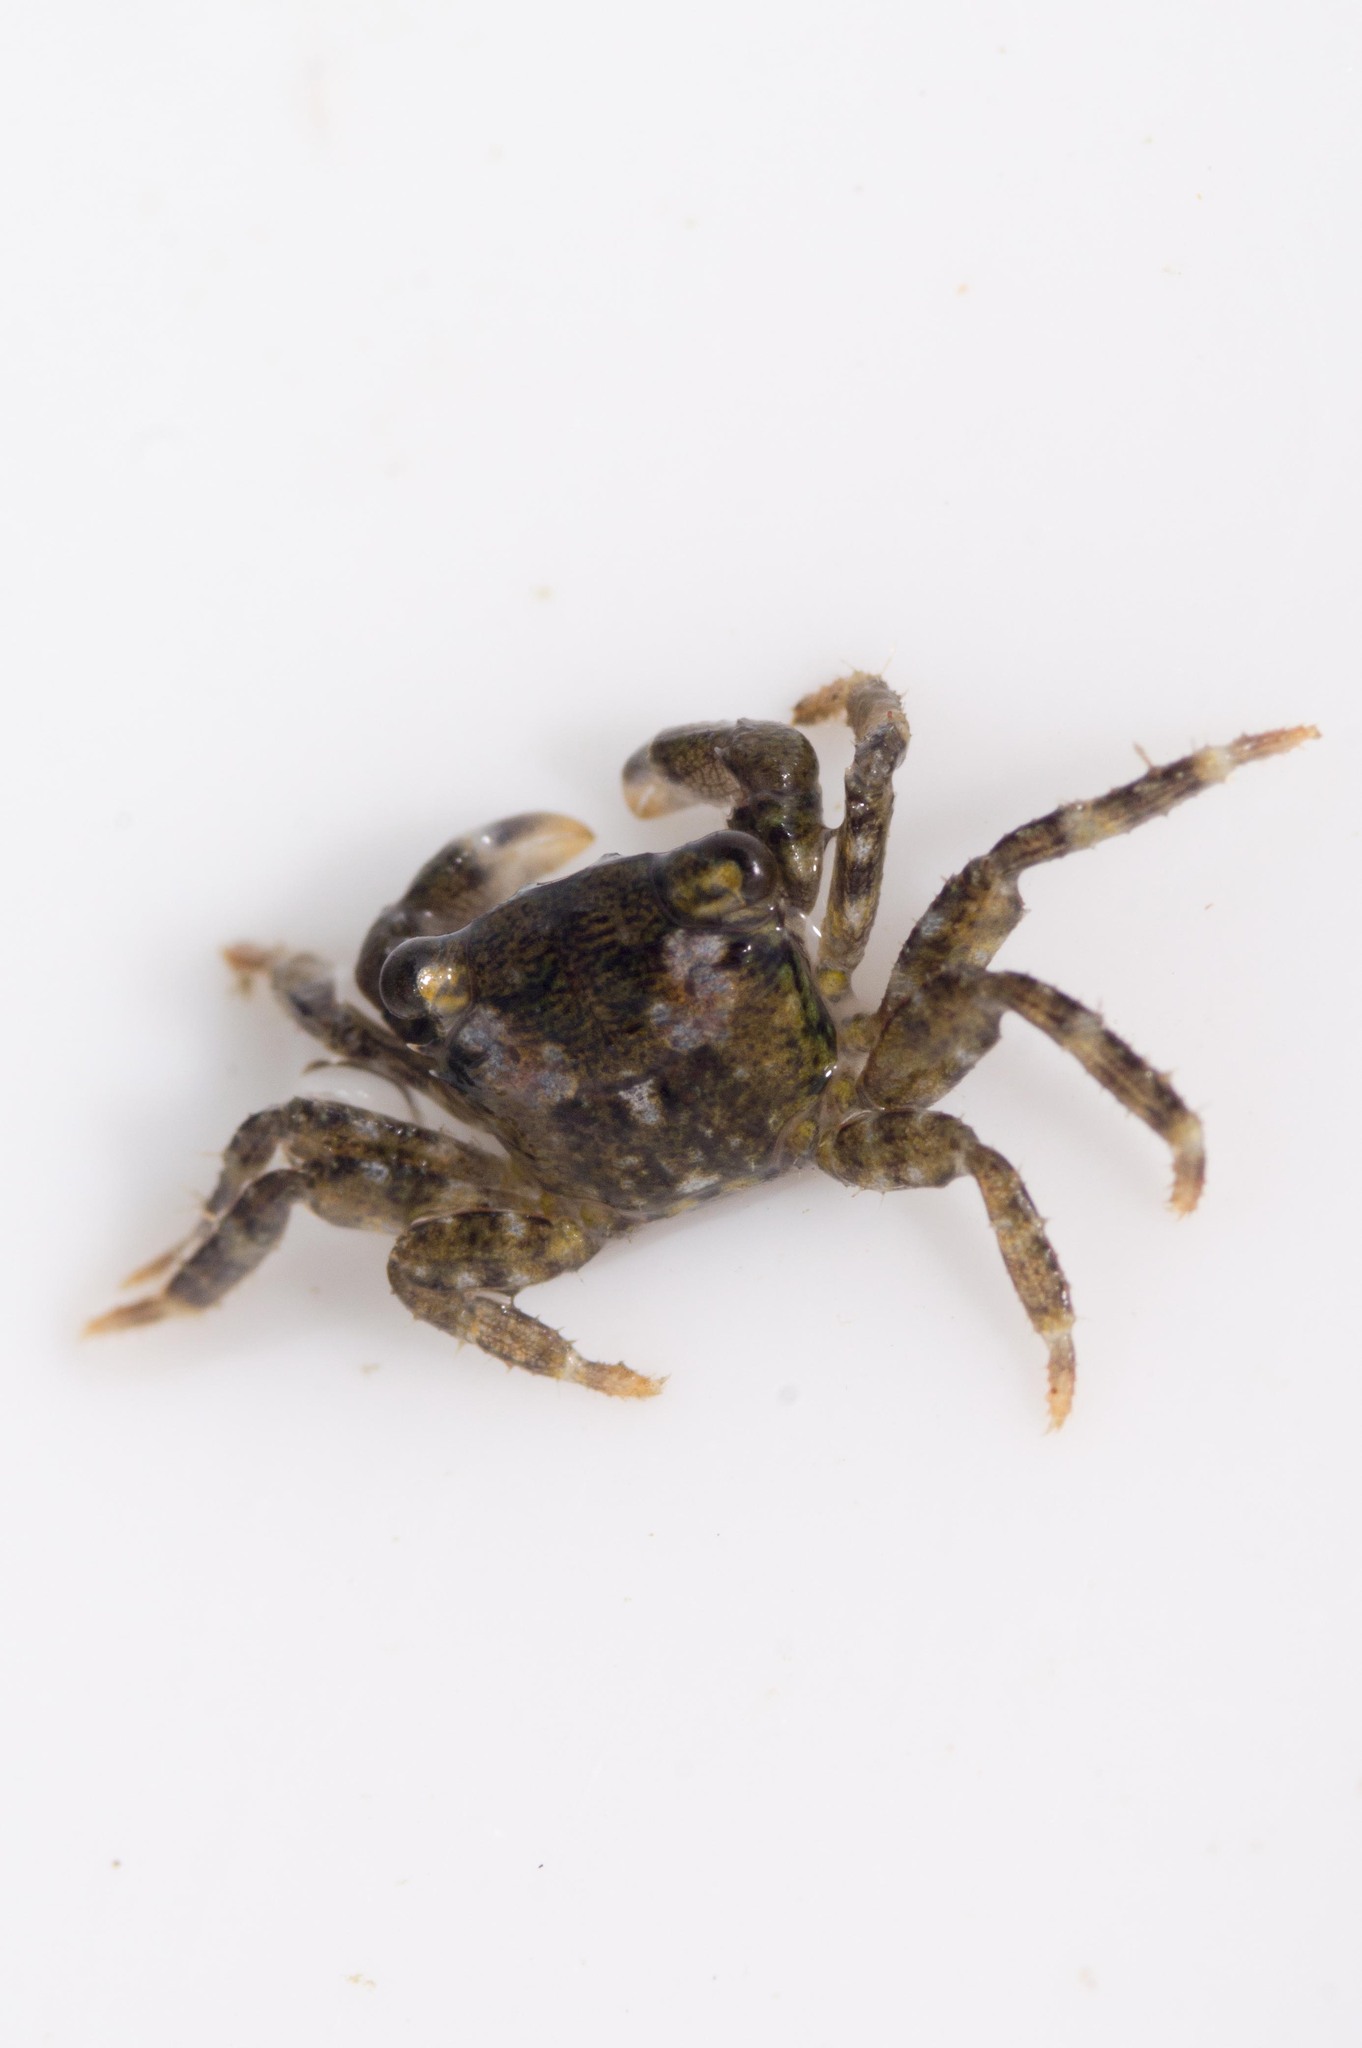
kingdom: Animalia
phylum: Arthropoda
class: Malacostraca
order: Decapoda
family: Grapsidae
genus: Pachygrapsus
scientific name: Pachygrapsus crassipes
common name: Striped shore crab
